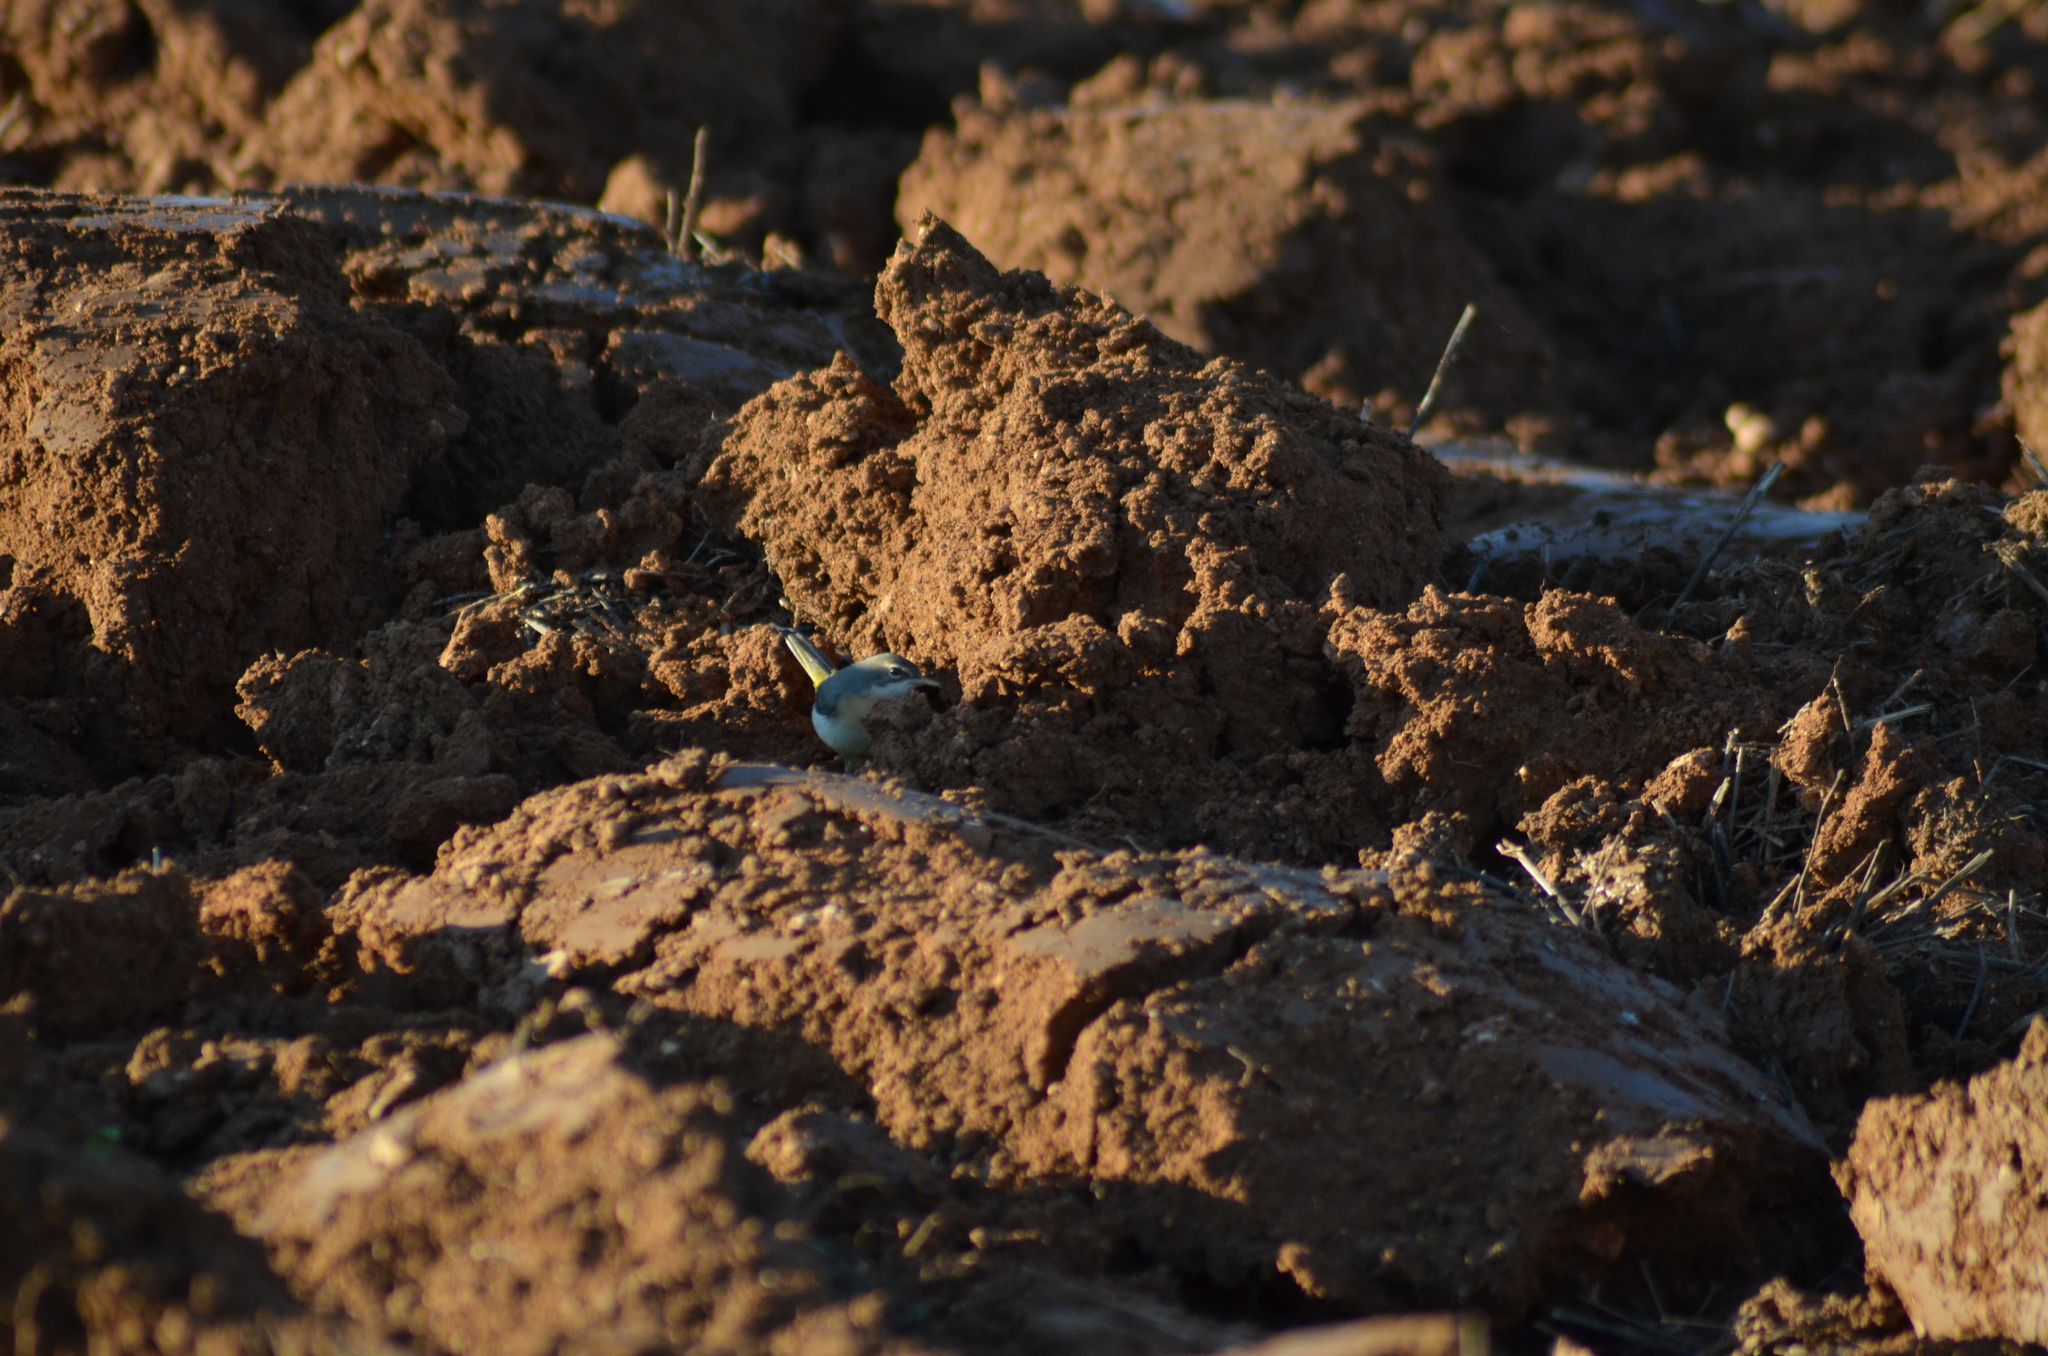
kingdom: Animalia
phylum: Chordata
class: Aves
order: Passeriformes
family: Motacillidae
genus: Motacilla
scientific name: Motacilla cinerea
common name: Grey wagtail
